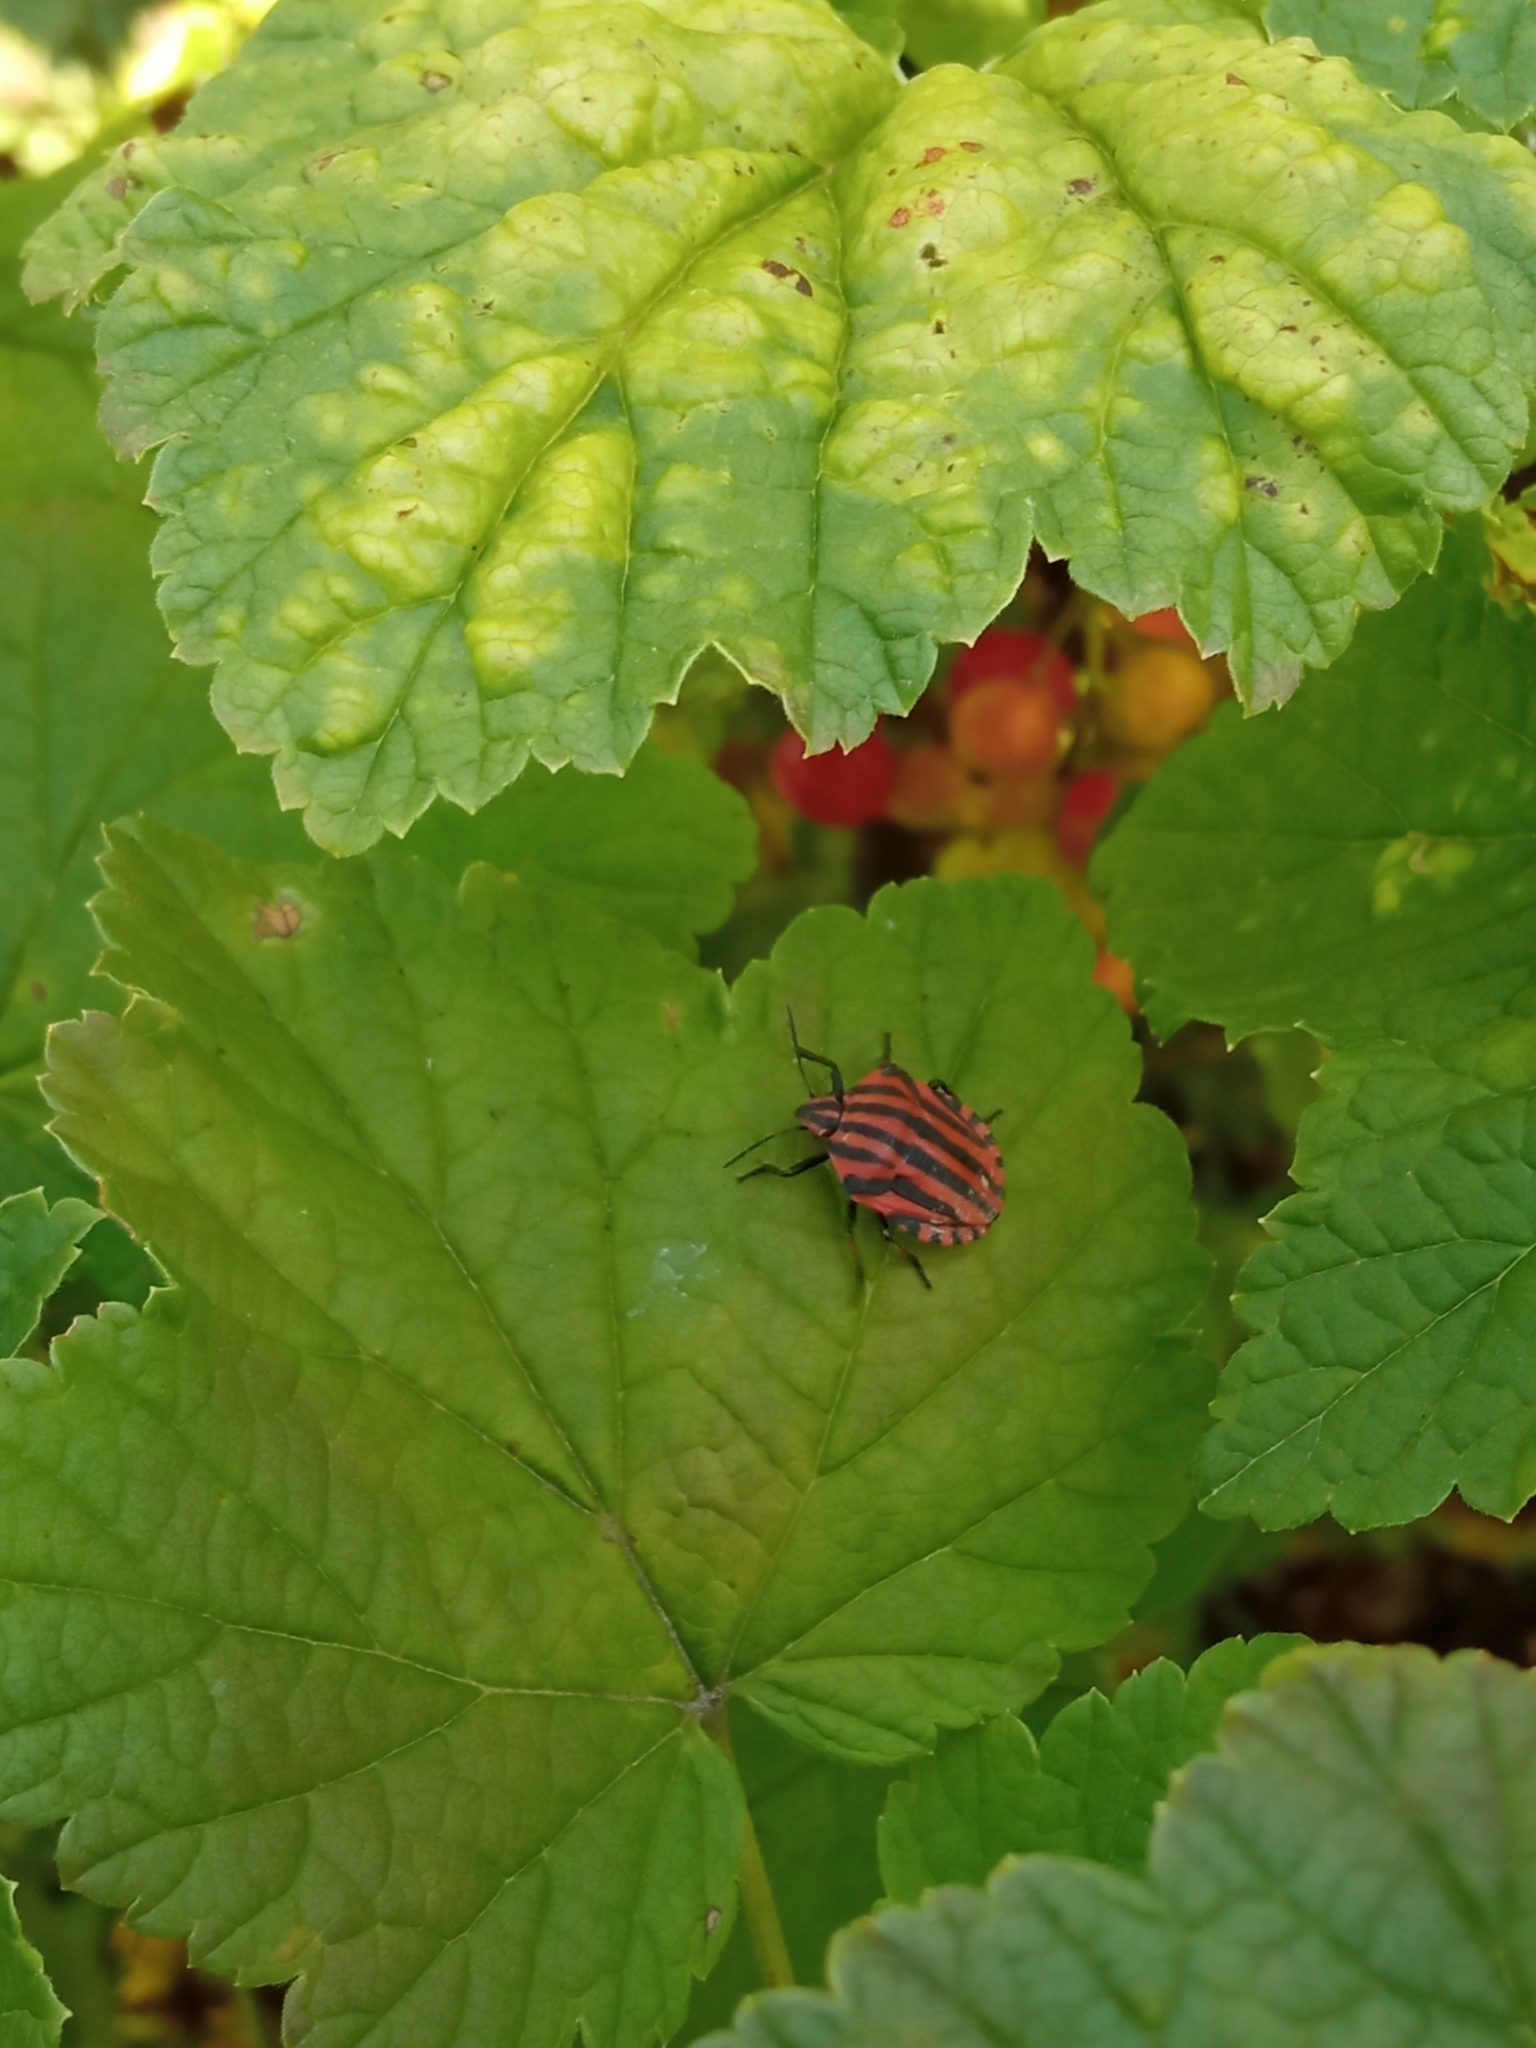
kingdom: Animalia
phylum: Arthropoda
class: Insecta
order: Hemiptera
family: Pentatomidae
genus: Graphosoma
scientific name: Graphosoma italicum
